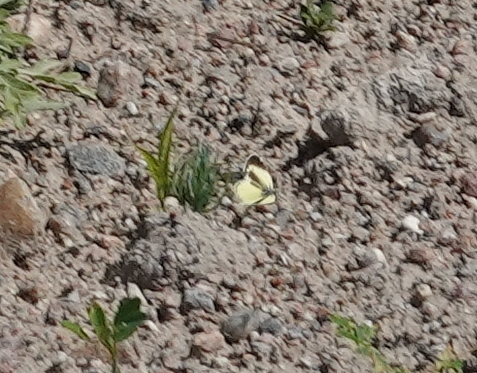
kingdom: Animalia
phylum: Arthropoda
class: Insecta
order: Lepidoptera
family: Pieridae
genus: Nathalis
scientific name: Nathalis iole
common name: Dainty sulphur
